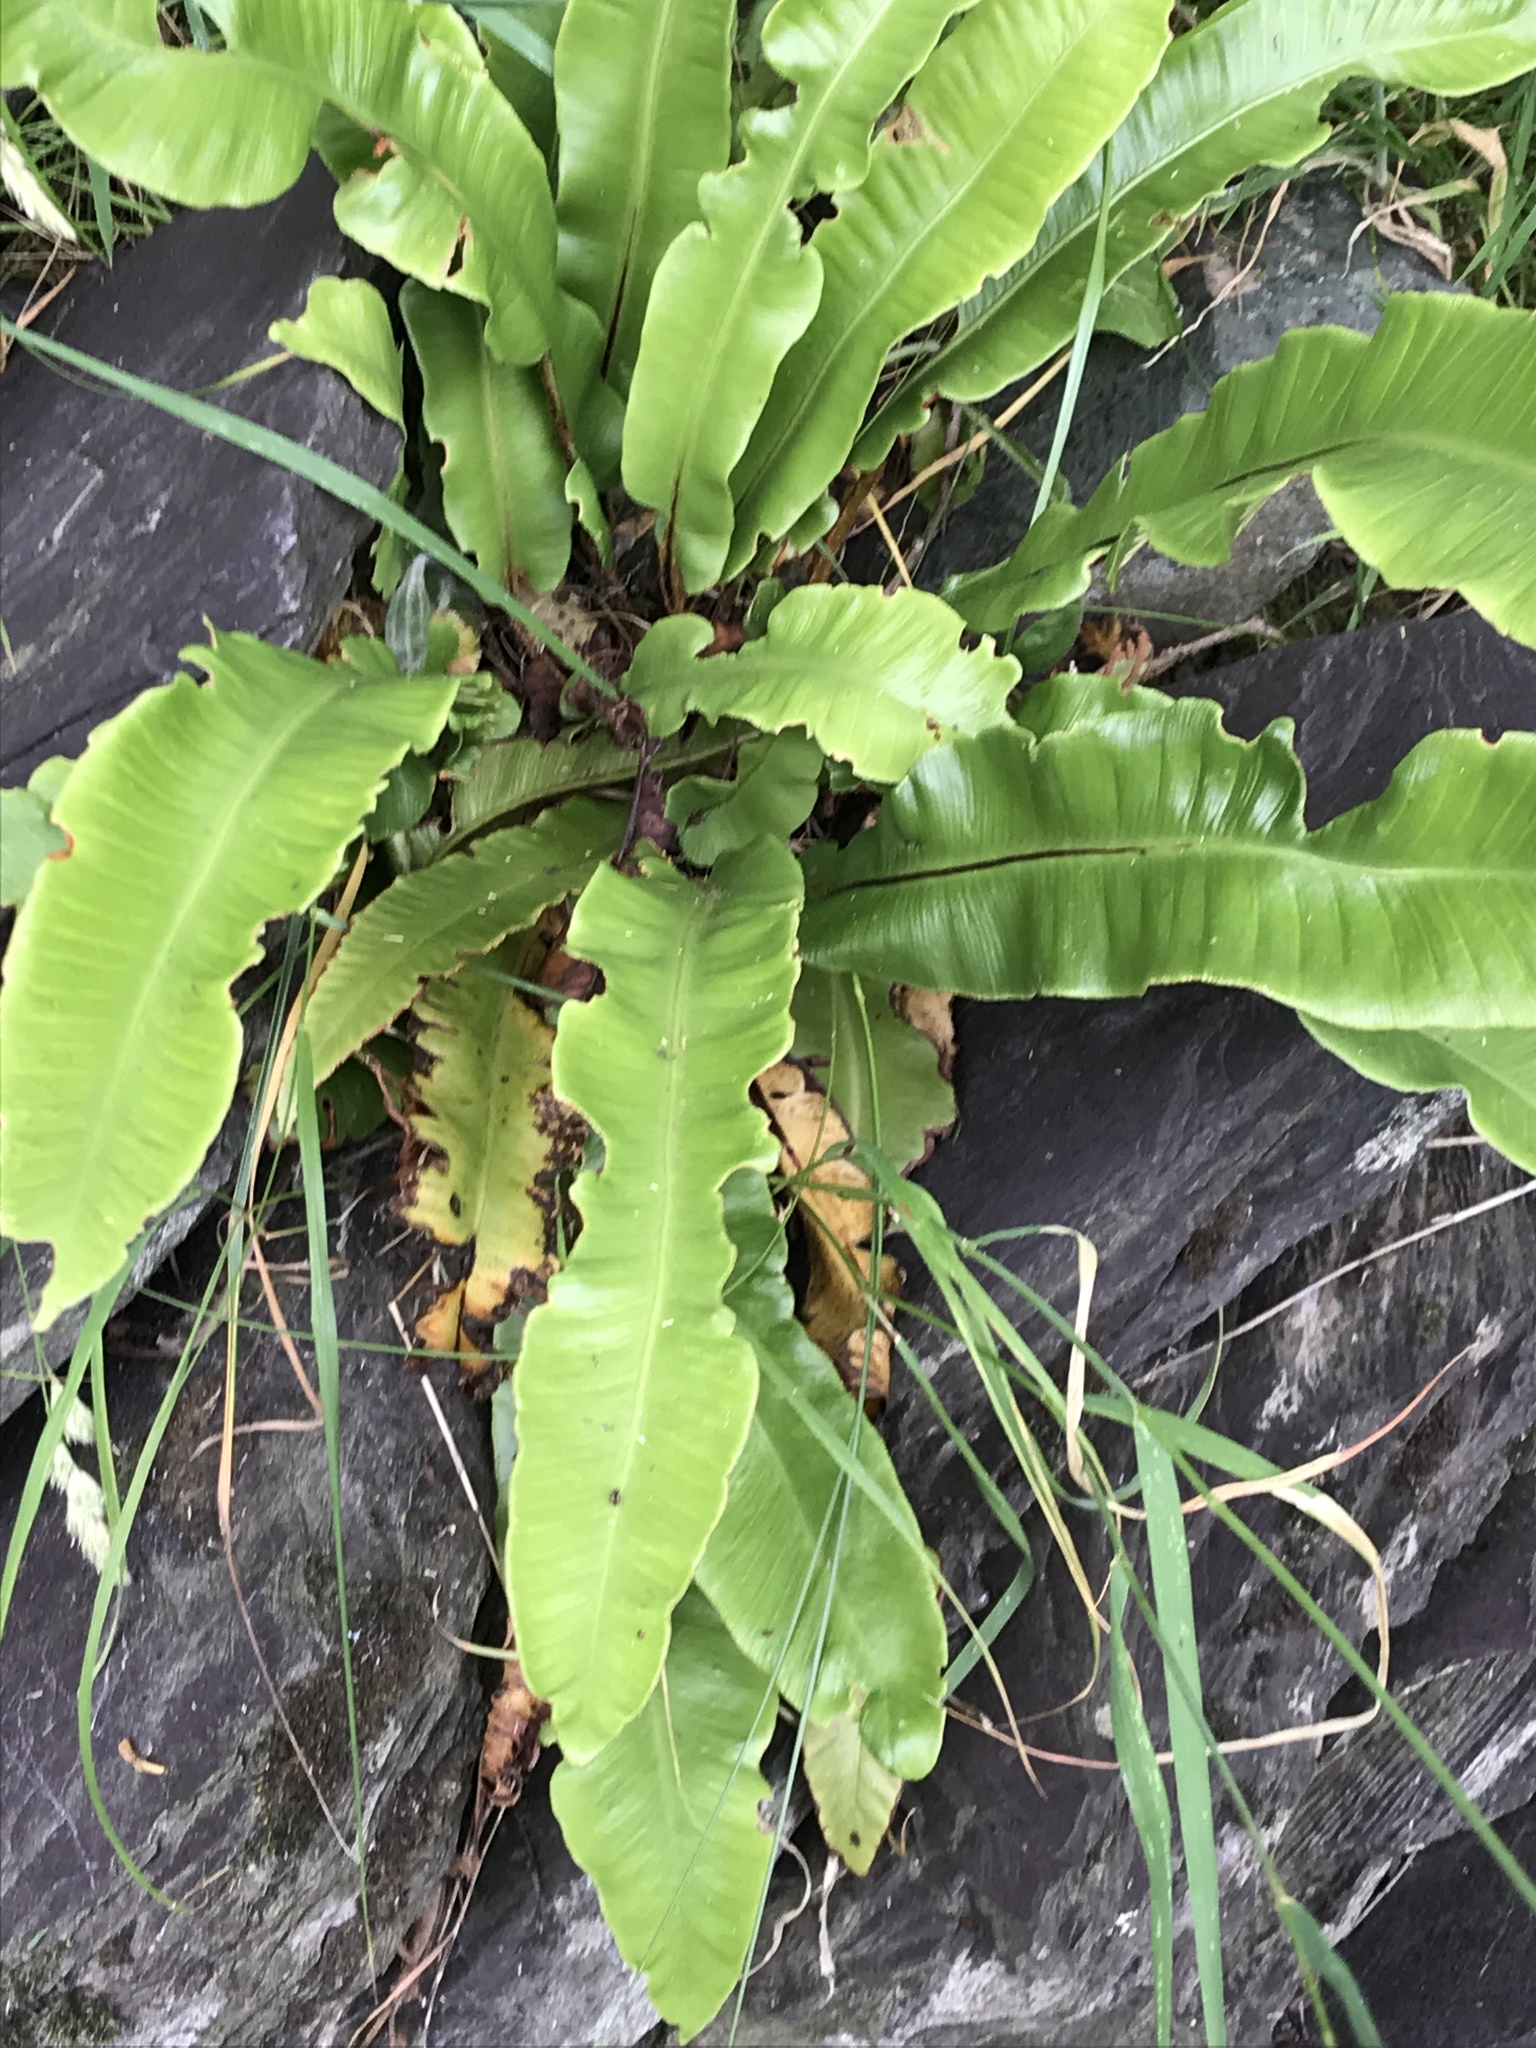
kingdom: Plantae
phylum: Tracheophyta
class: Polypodiopsida
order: Polypodiales
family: Aspleniaceae
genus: Asplenium
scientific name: Asplenium scolopendrium
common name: Hart's-tongue fern
